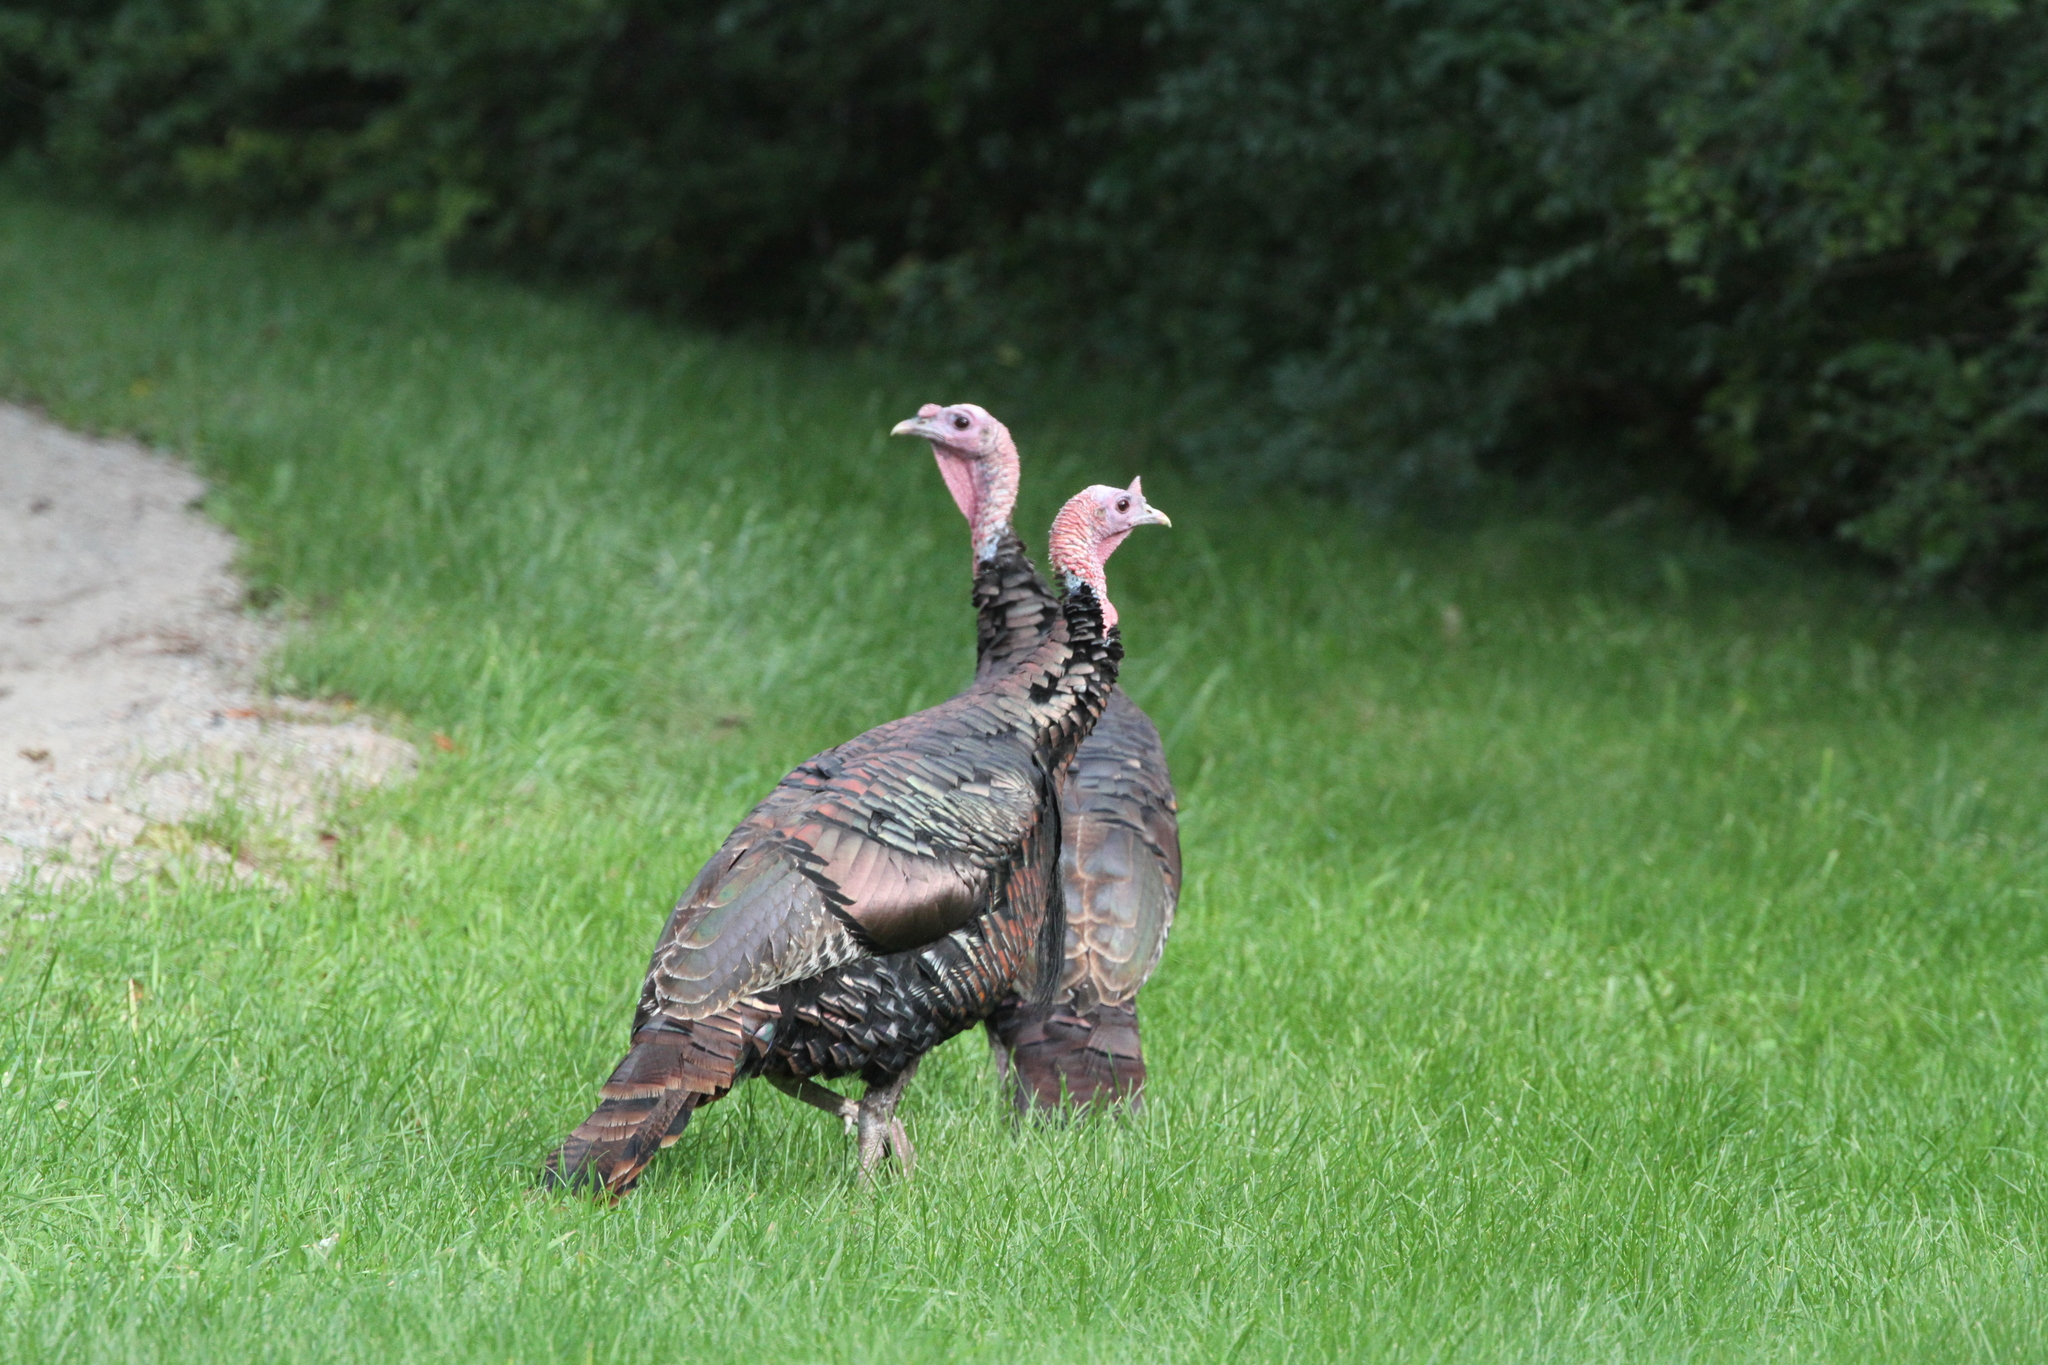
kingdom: Animalia
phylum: Chordata
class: Aves
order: Galliformes
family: Phasianidae
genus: Meleagris
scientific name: Meleagris gallopavo
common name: Wild turkey
